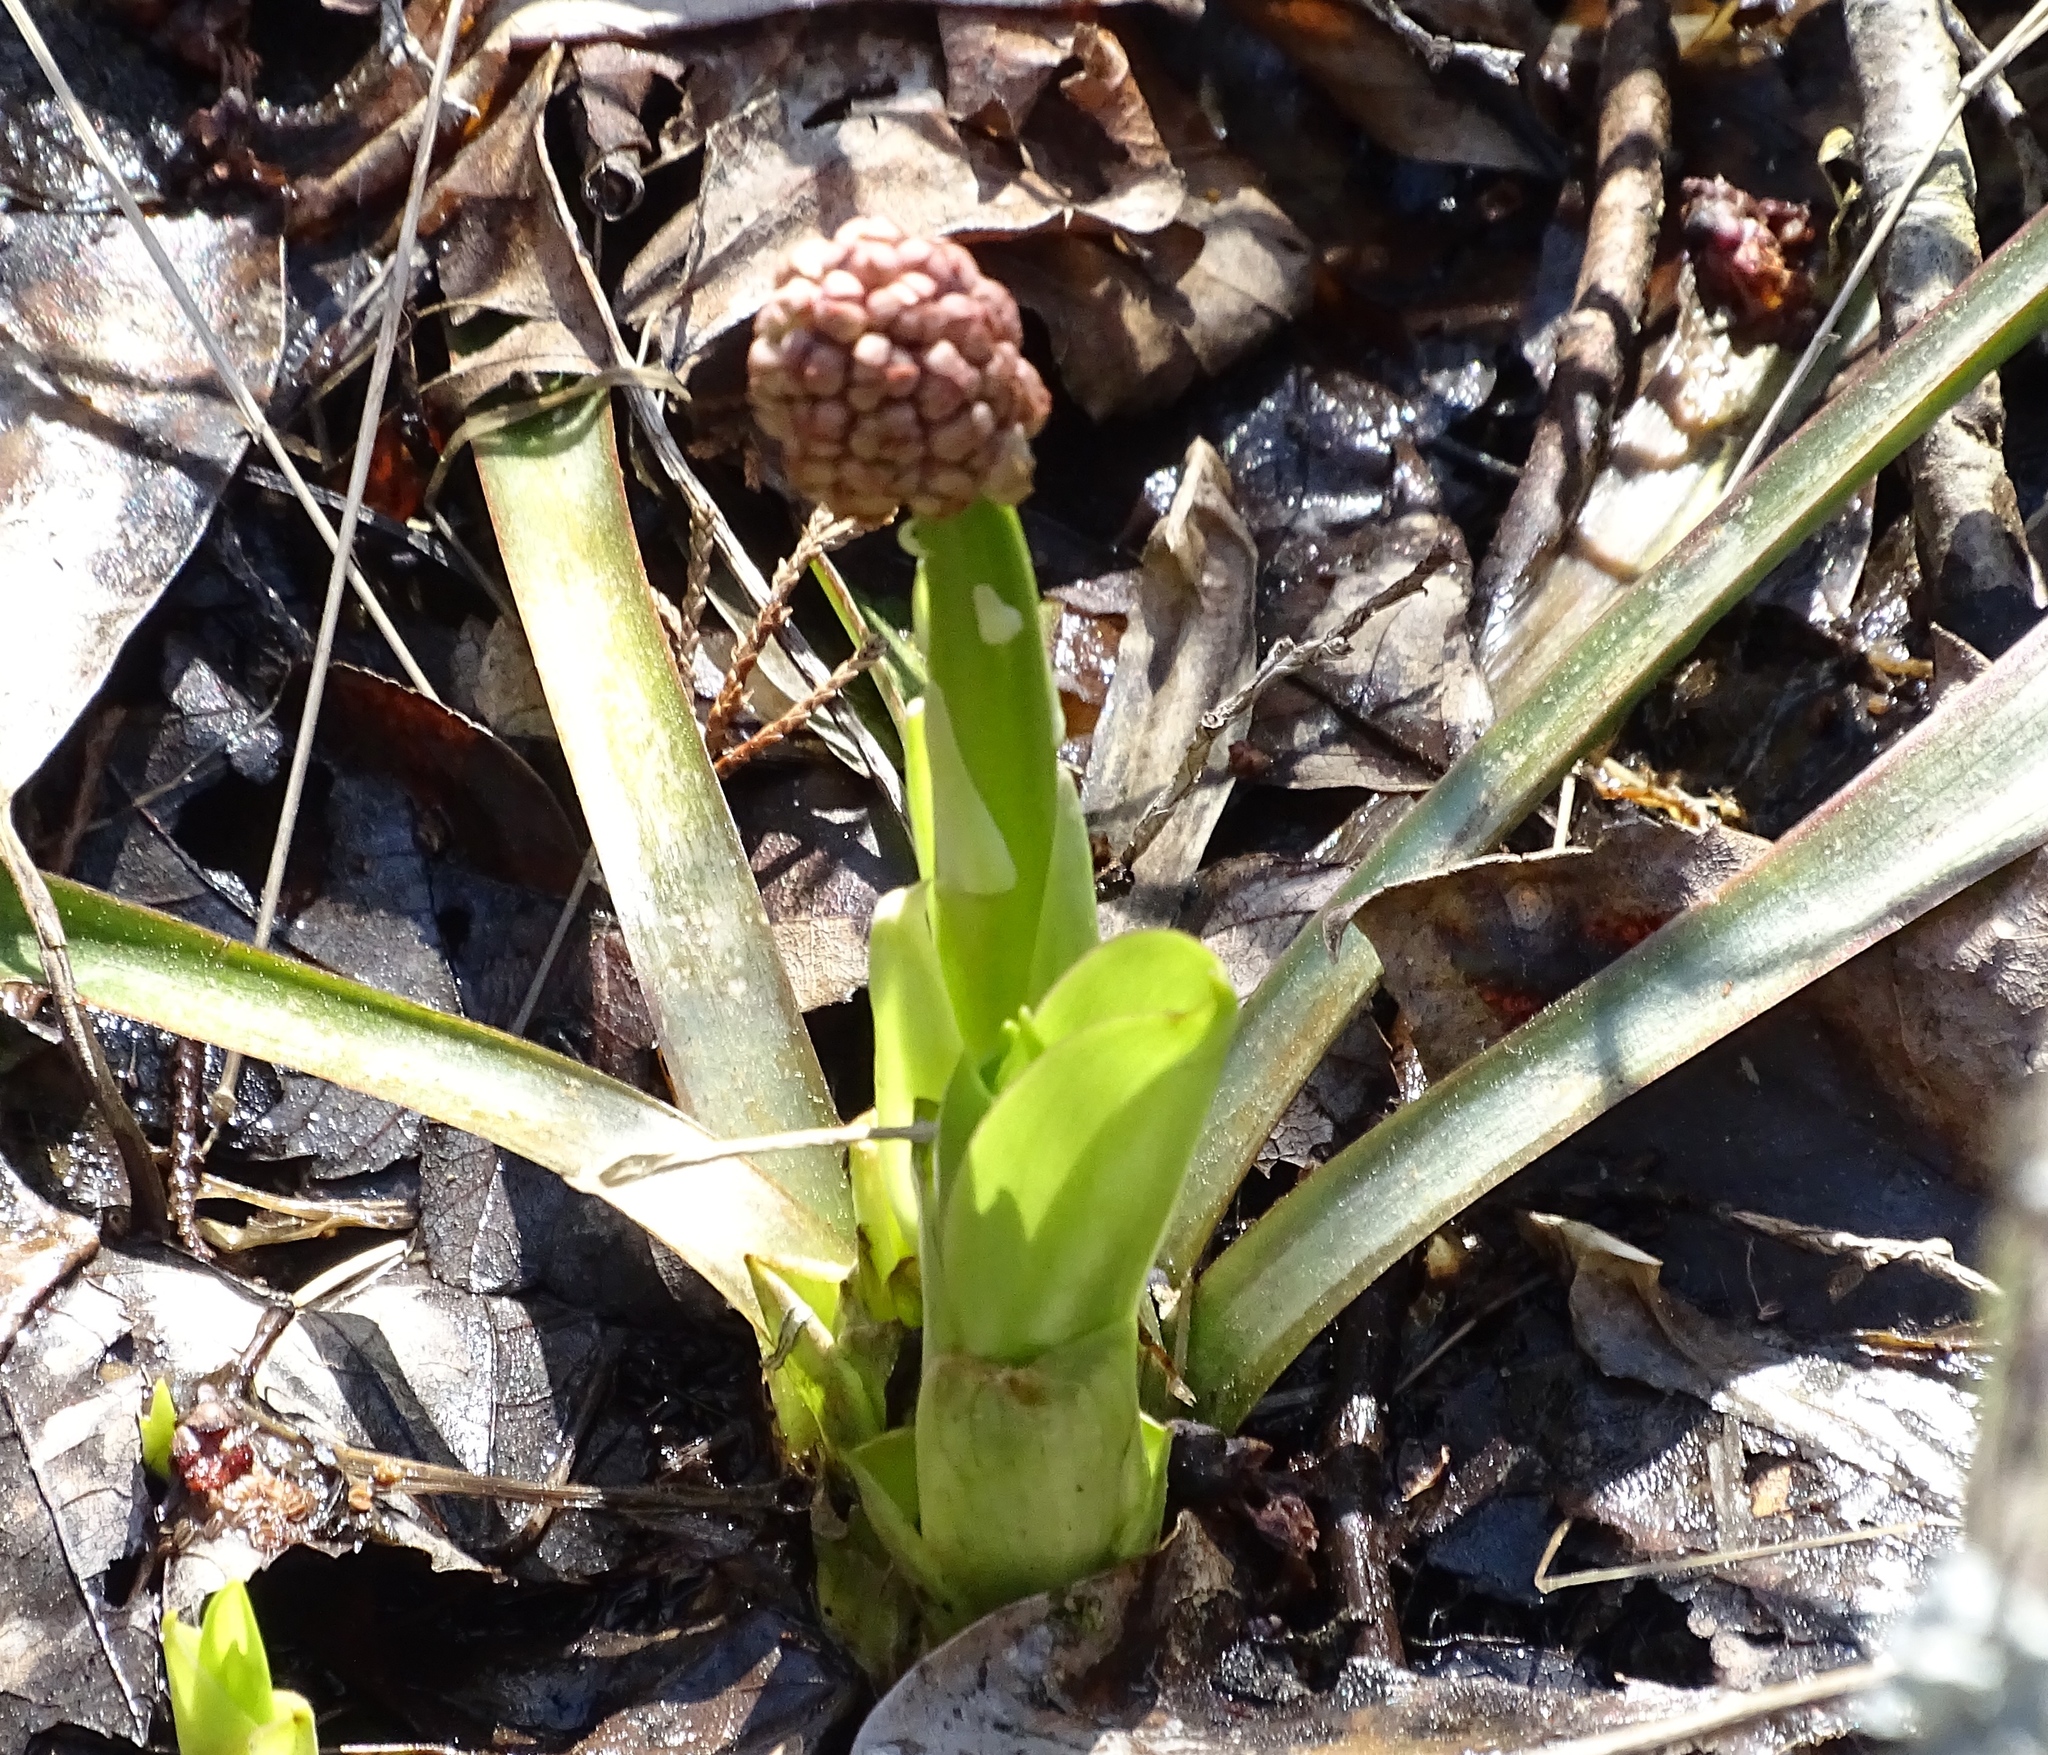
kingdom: Plantae
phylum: Tracheophyta
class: Liliopsida
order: Liliales
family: Melanthiaceae
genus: Helonias
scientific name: Helonias bullata
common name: Swamp-pink
